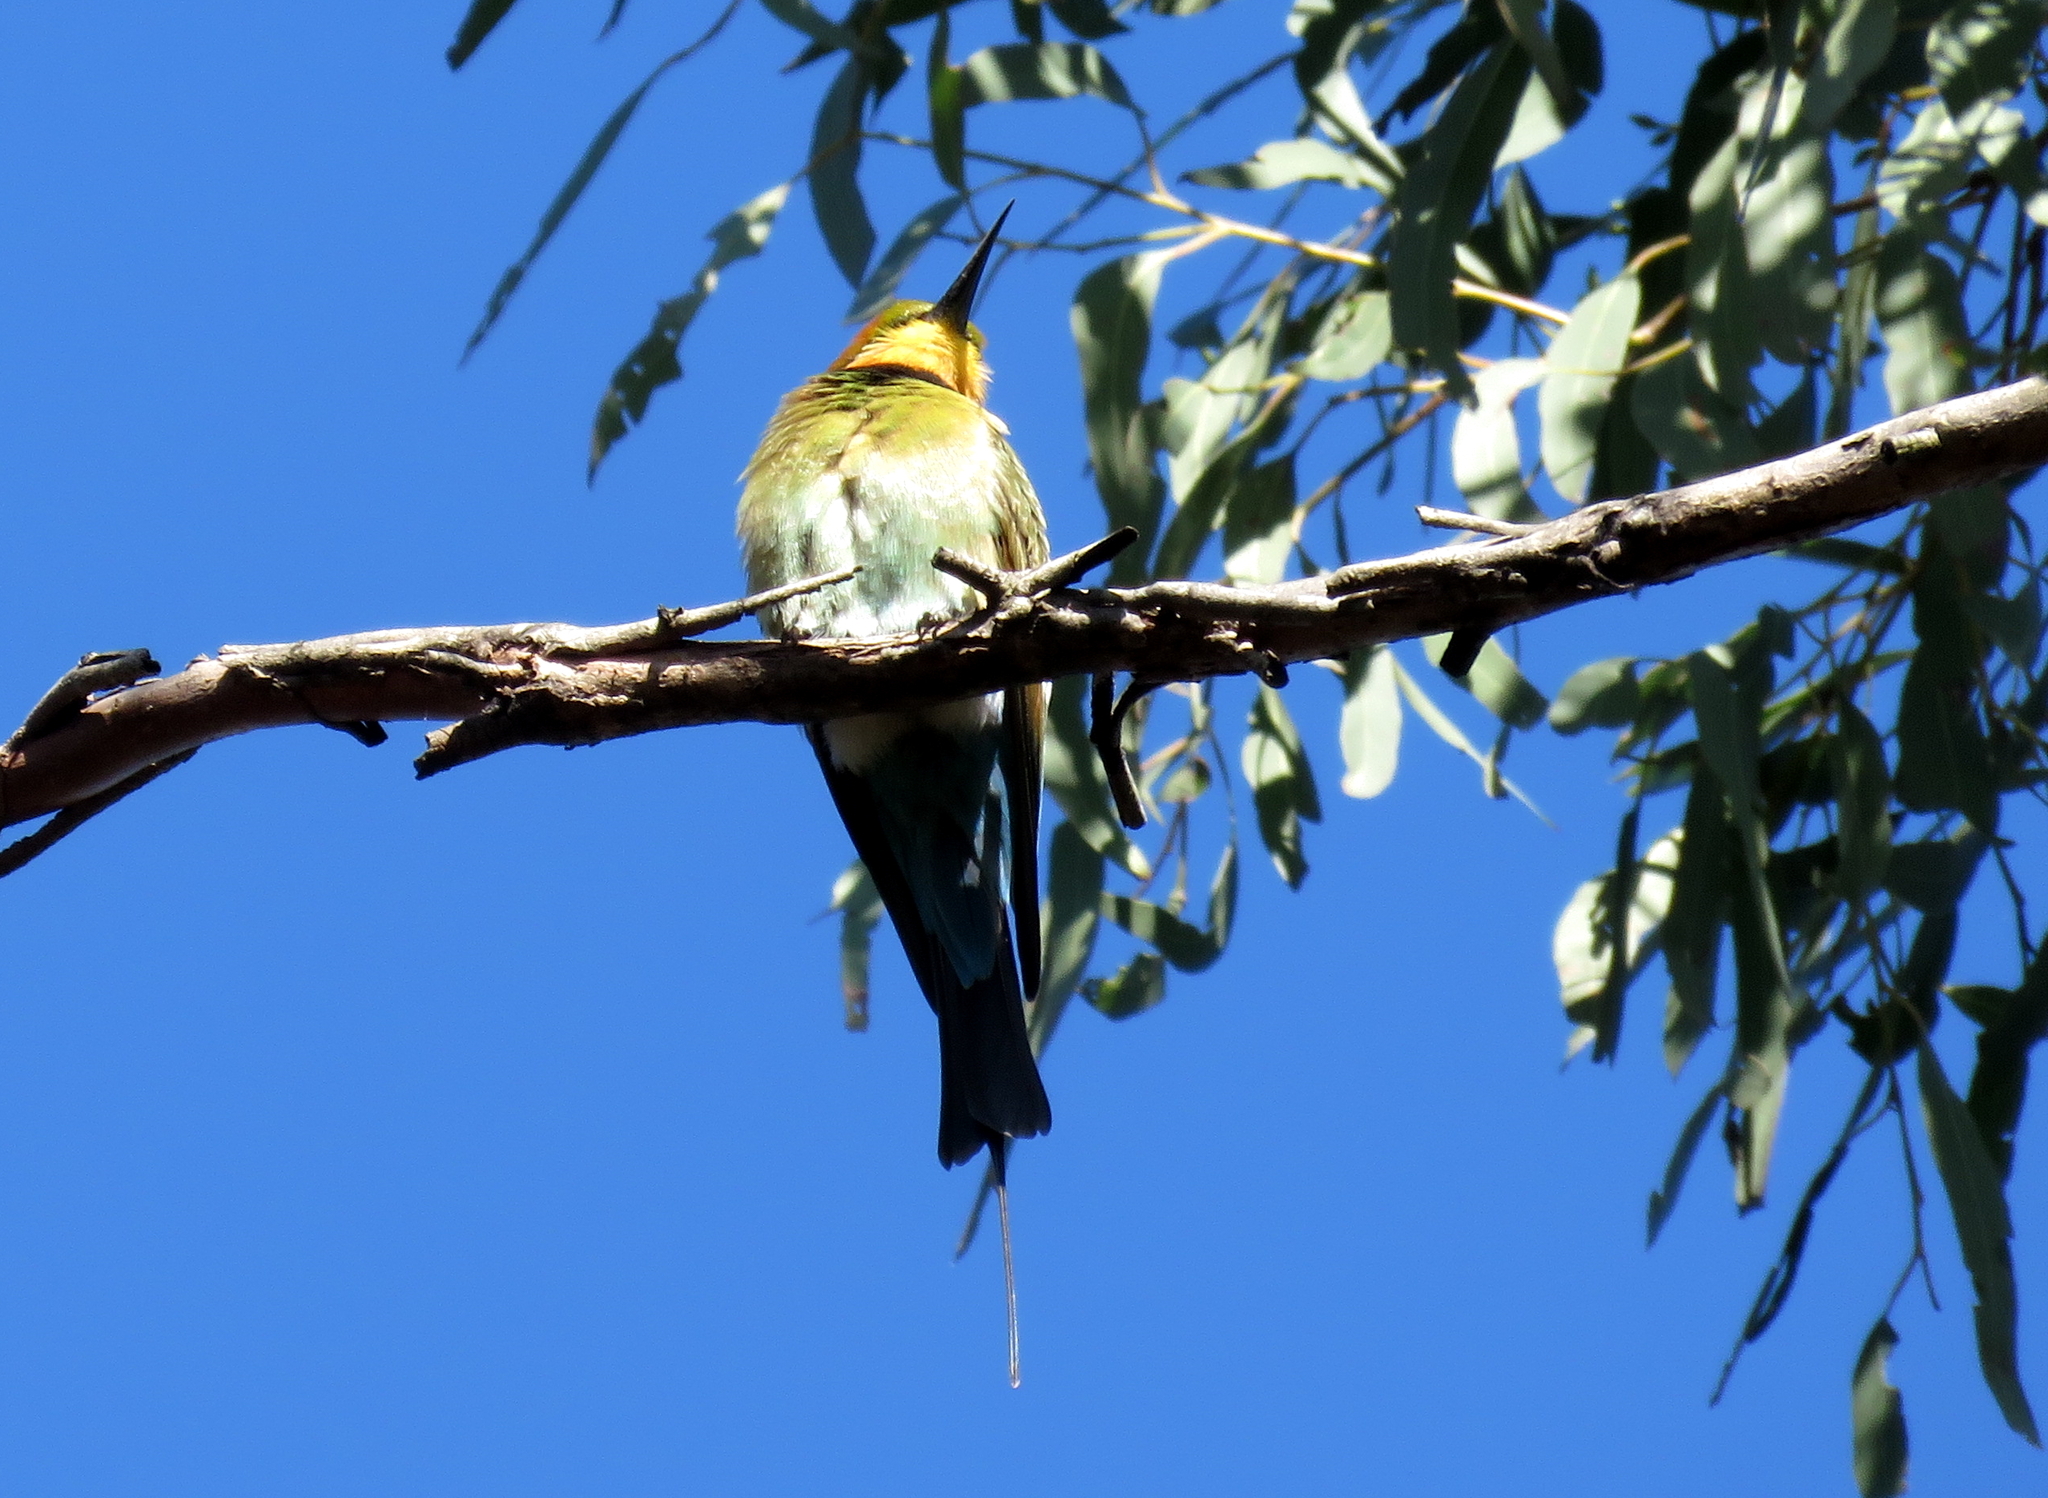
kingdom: Animalia
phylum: Chordata
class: Aves
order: Coraciiformes
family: Meropidae
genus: Merops
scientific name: Merops ornatus
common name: Rainbow bee-eater
